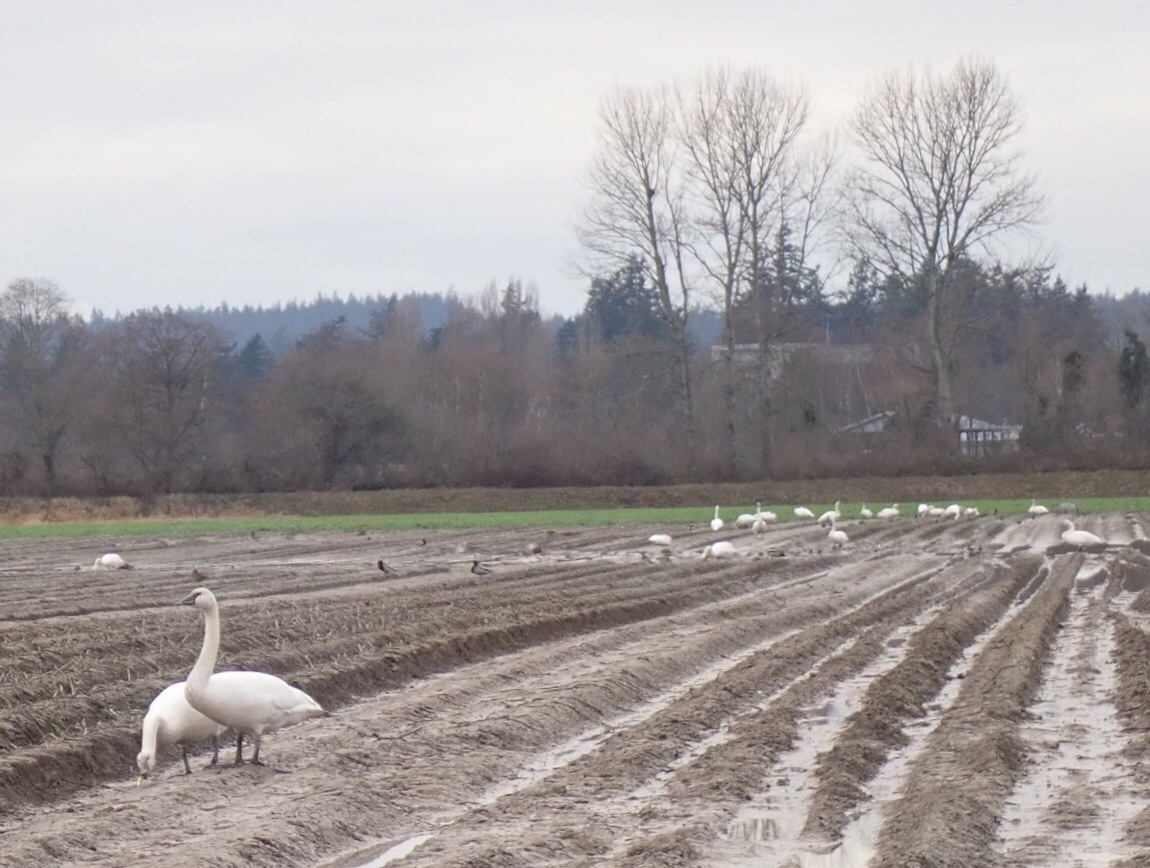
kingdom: Animalia
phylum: Chordata
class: Aves
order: Anseriformes
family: Anatidae
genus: Cygnus
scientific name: Cygnus buccinator
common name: Trumpeter swan
